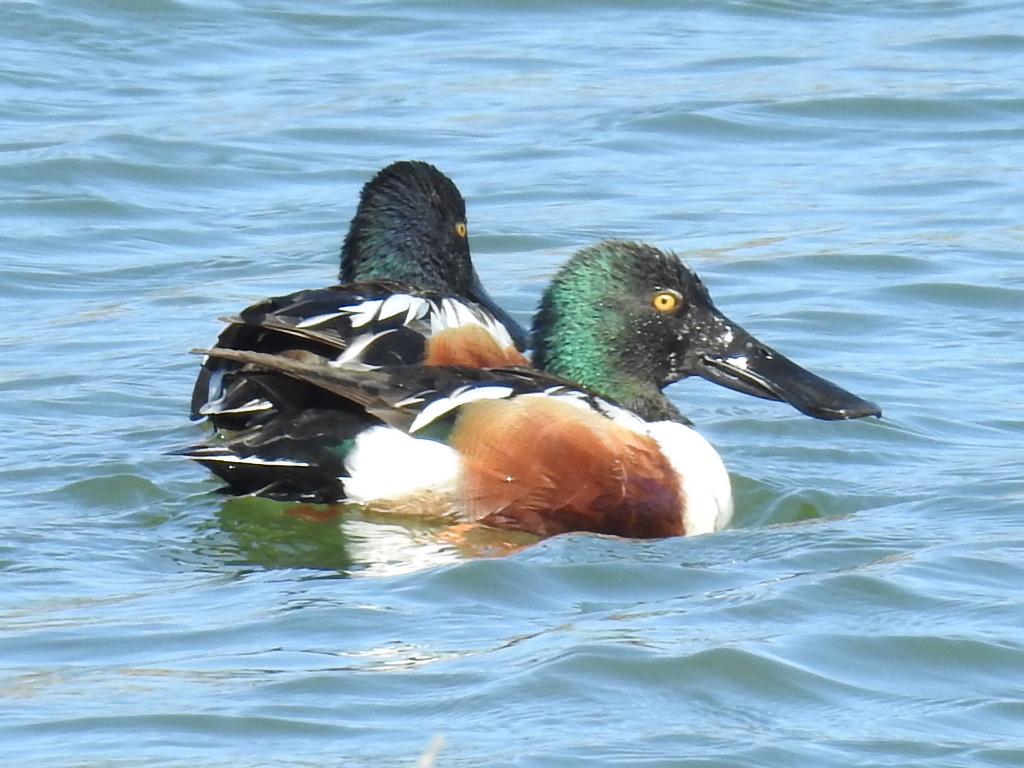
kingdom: Animalia
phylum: Chordata
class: Aves
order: Anseriformes
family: Anatidae
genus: Spatula
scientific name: Spatula clypeata
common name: Northern shoveler
